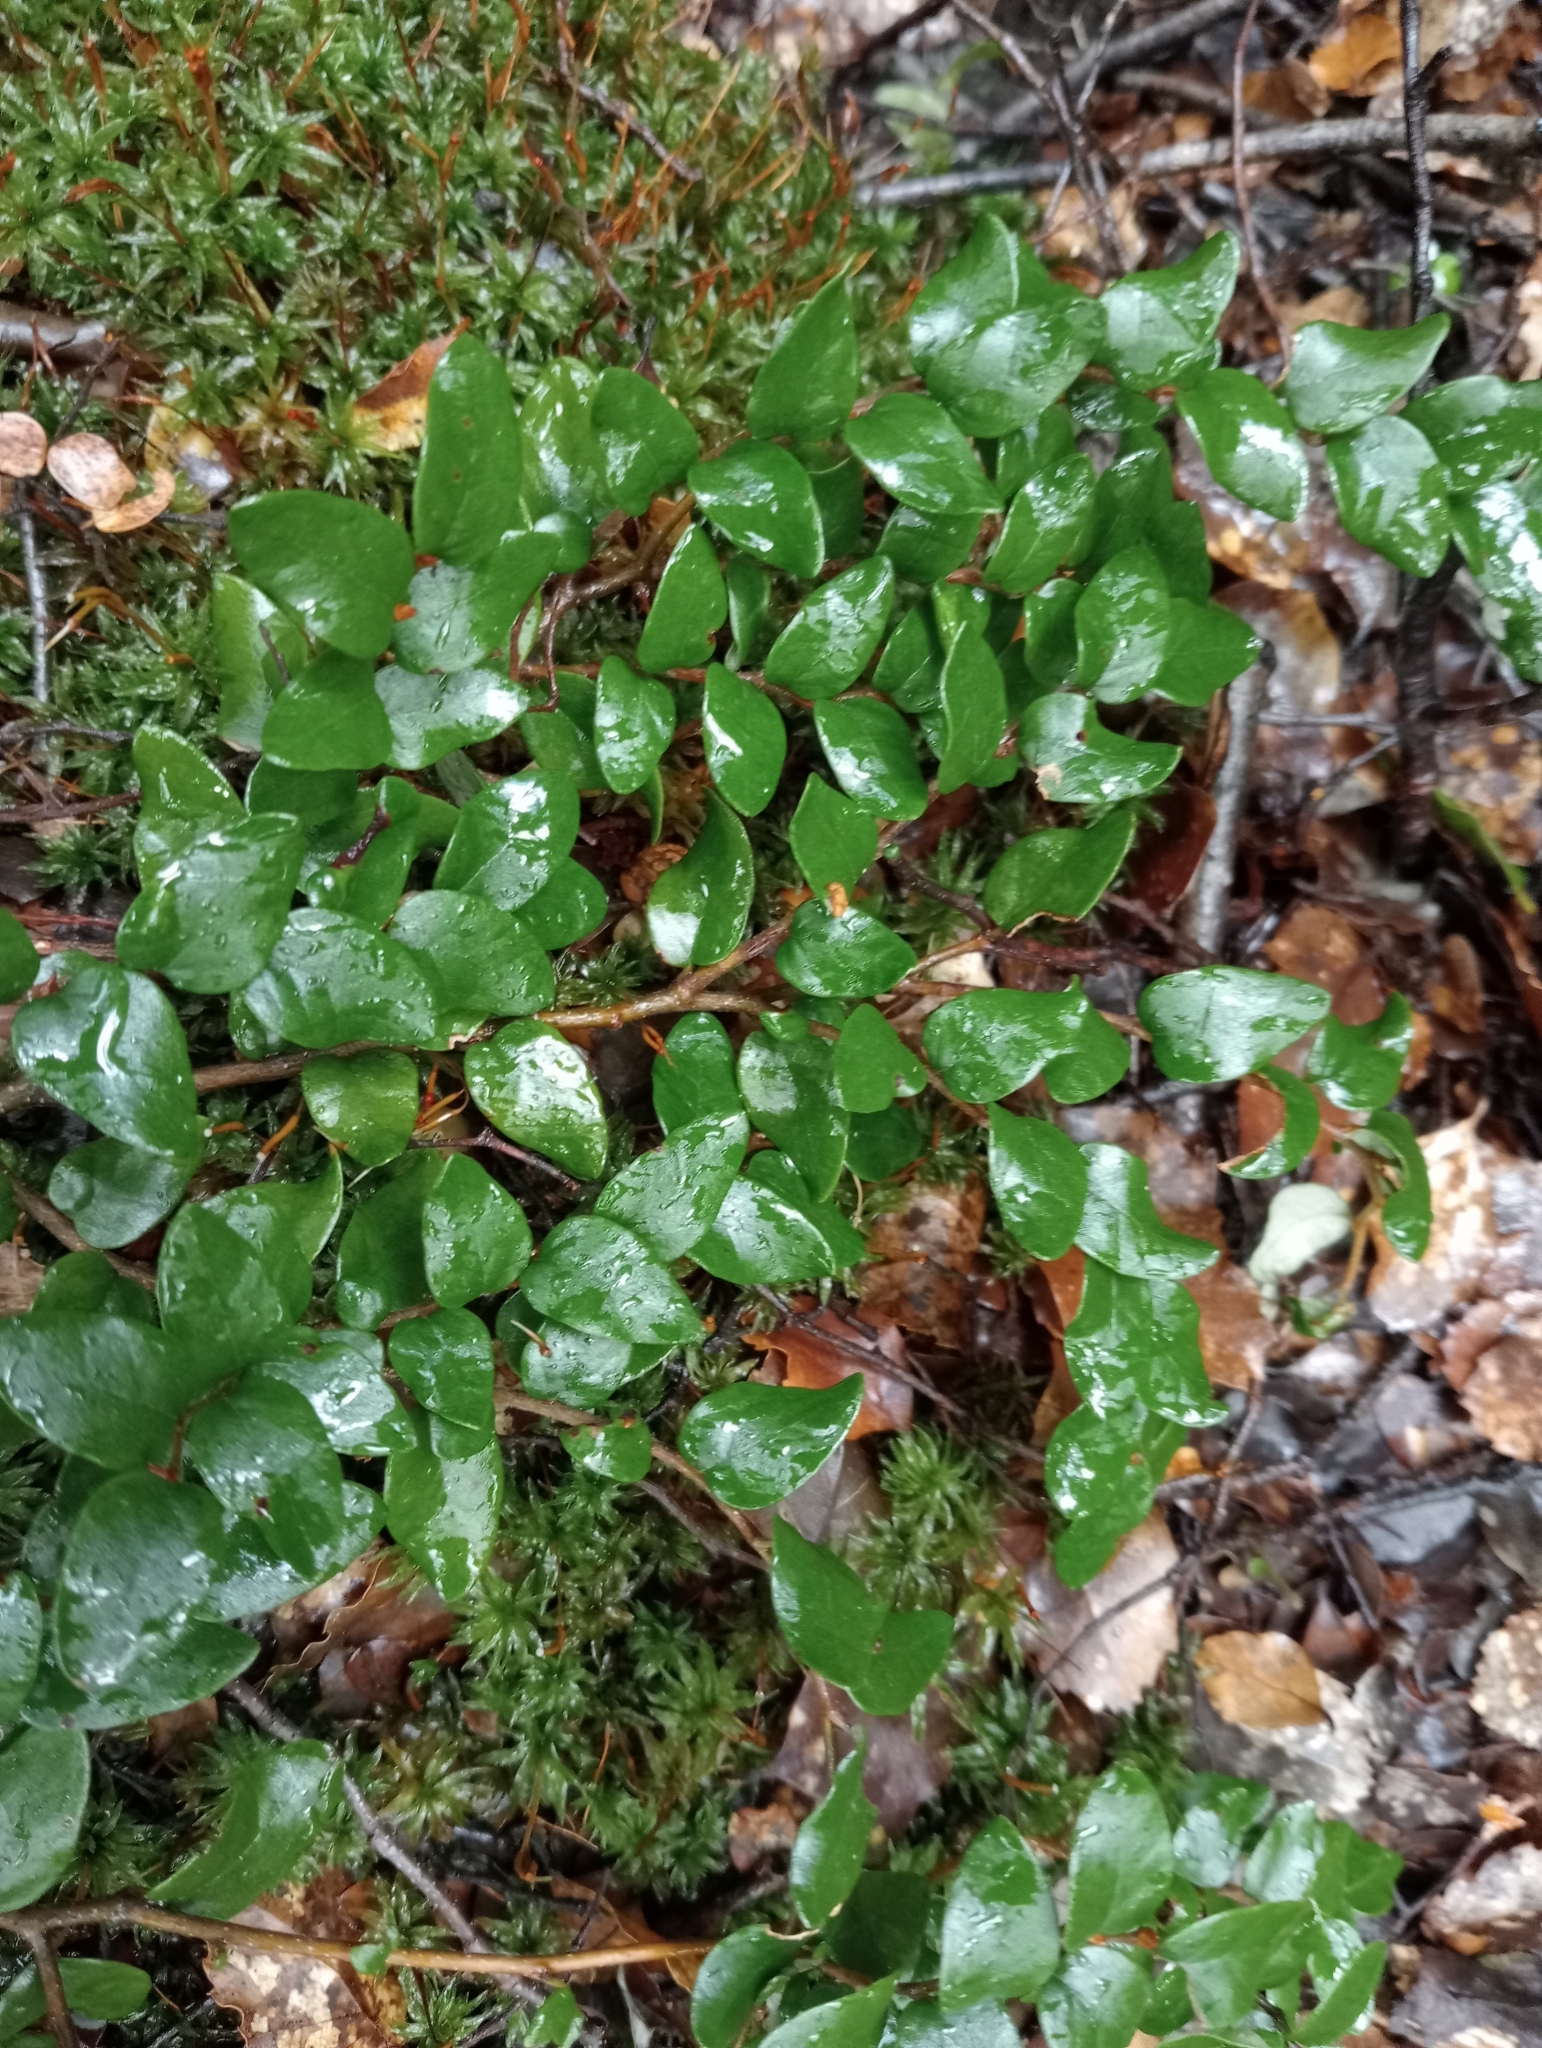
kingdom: Plantae
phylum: Tracheophyta
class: Magnoliopsida
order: Fagales
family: Nothofagaceae
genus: Nothofagus
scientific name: Nothofagus cliffortioides
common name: Mountain beech
